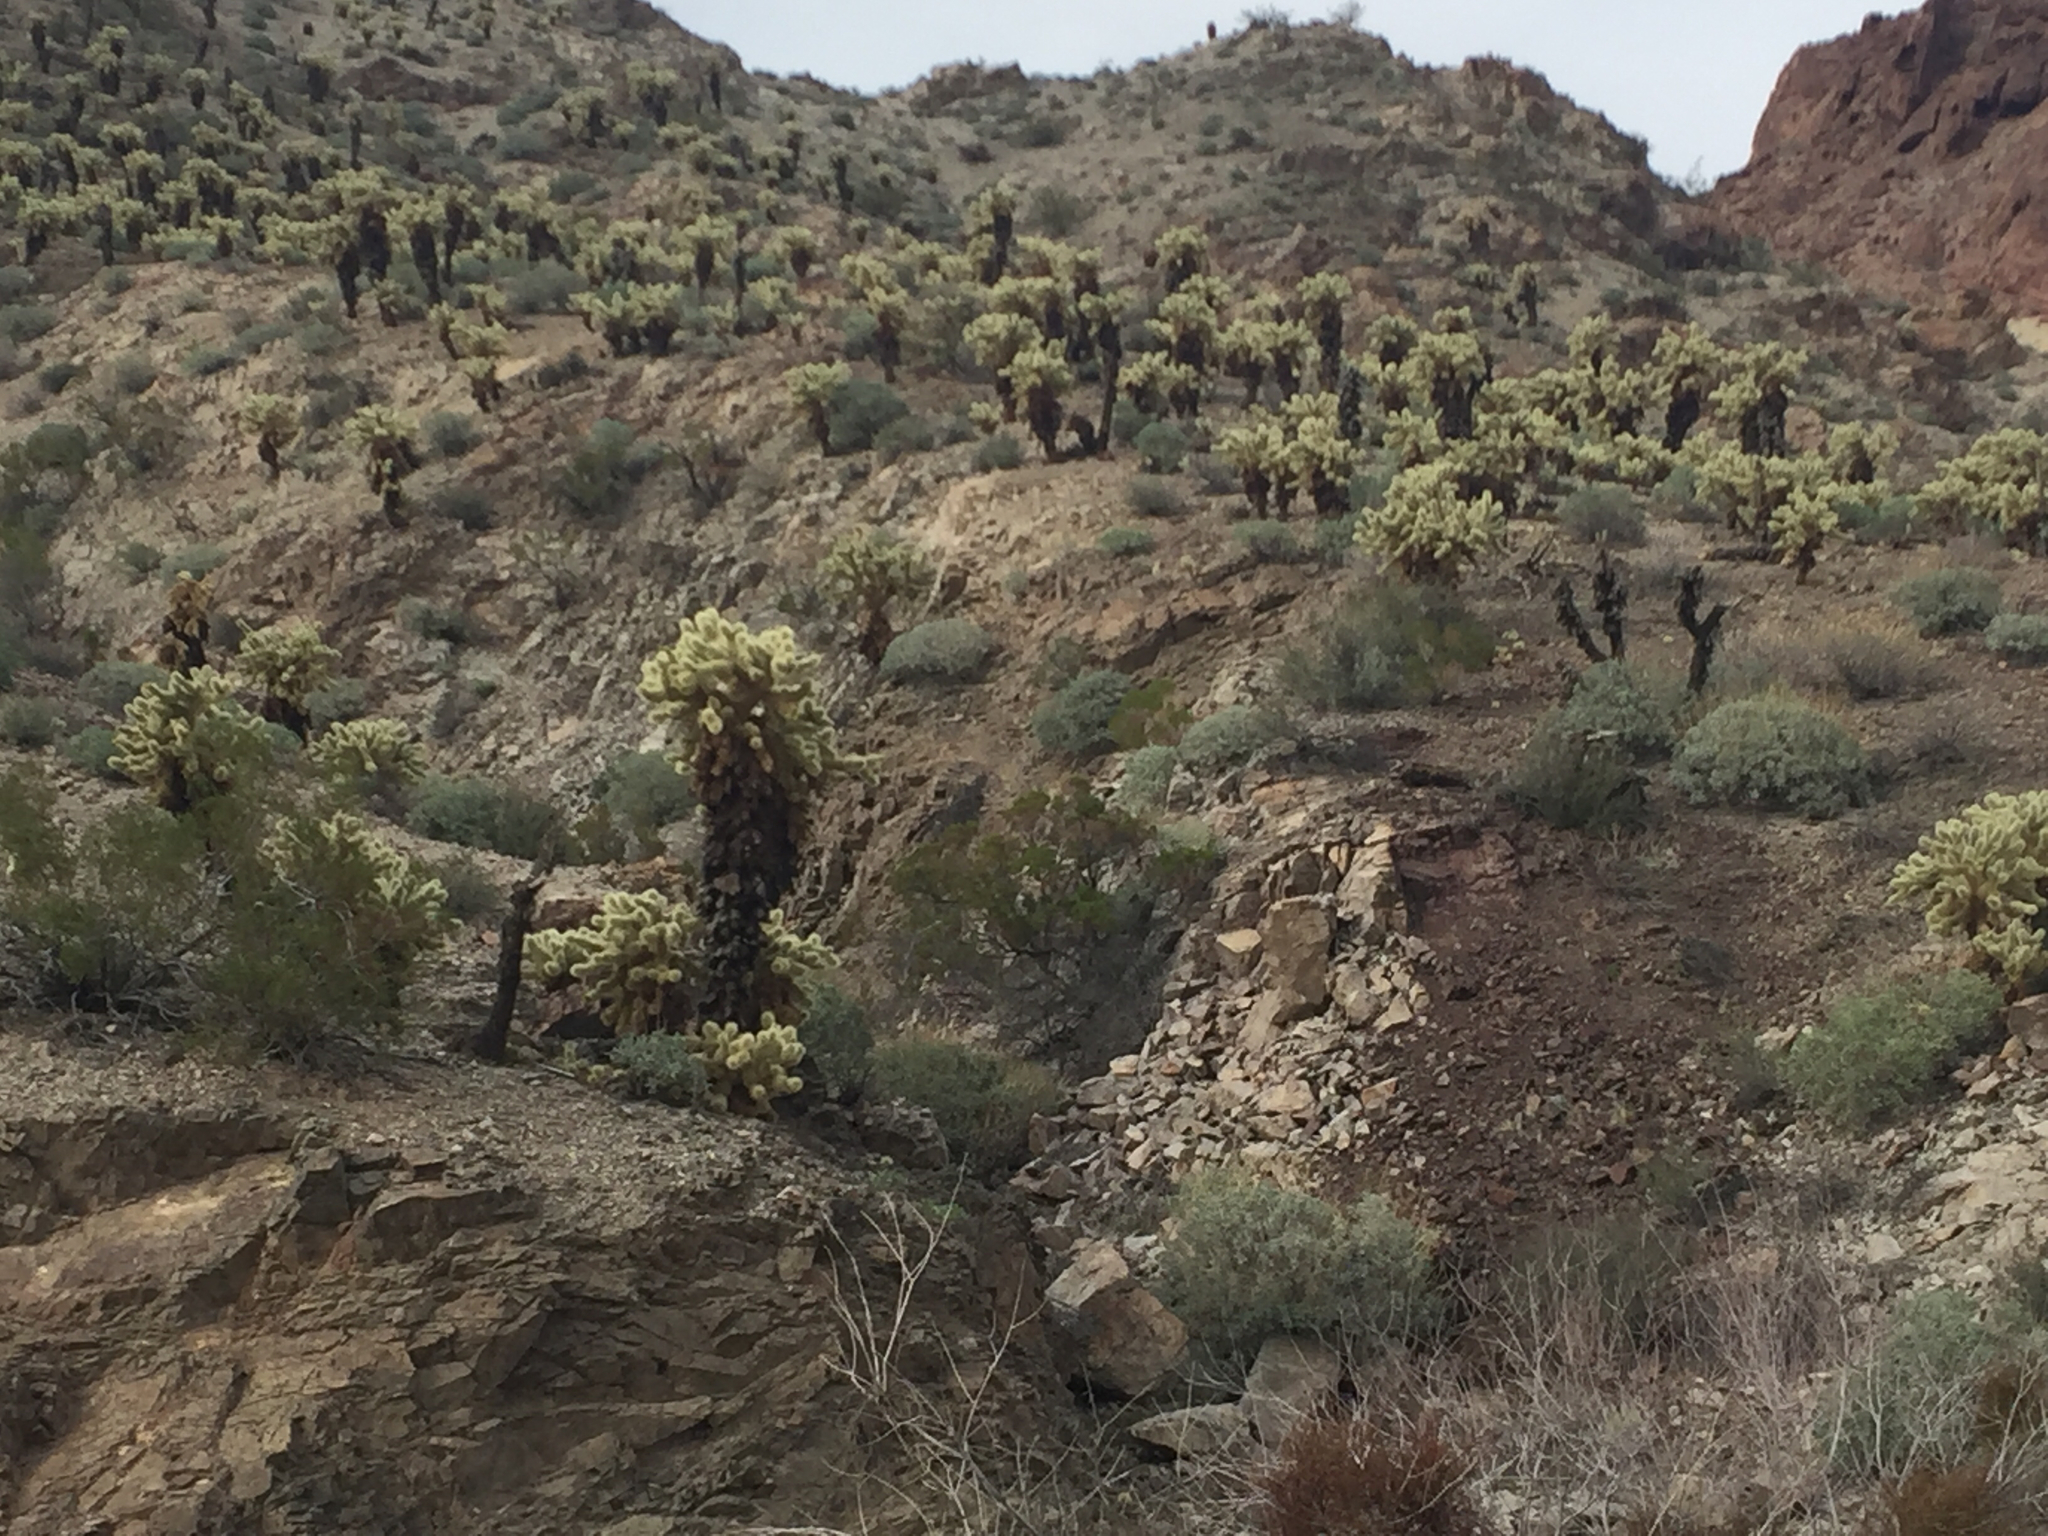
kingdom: Plantae
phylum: Tracheophyta
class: Magnoliopsida
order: Caryophyllales
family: Cactaceae
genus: Cylindropuntia
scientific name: Cylindropuntia fosbergii
